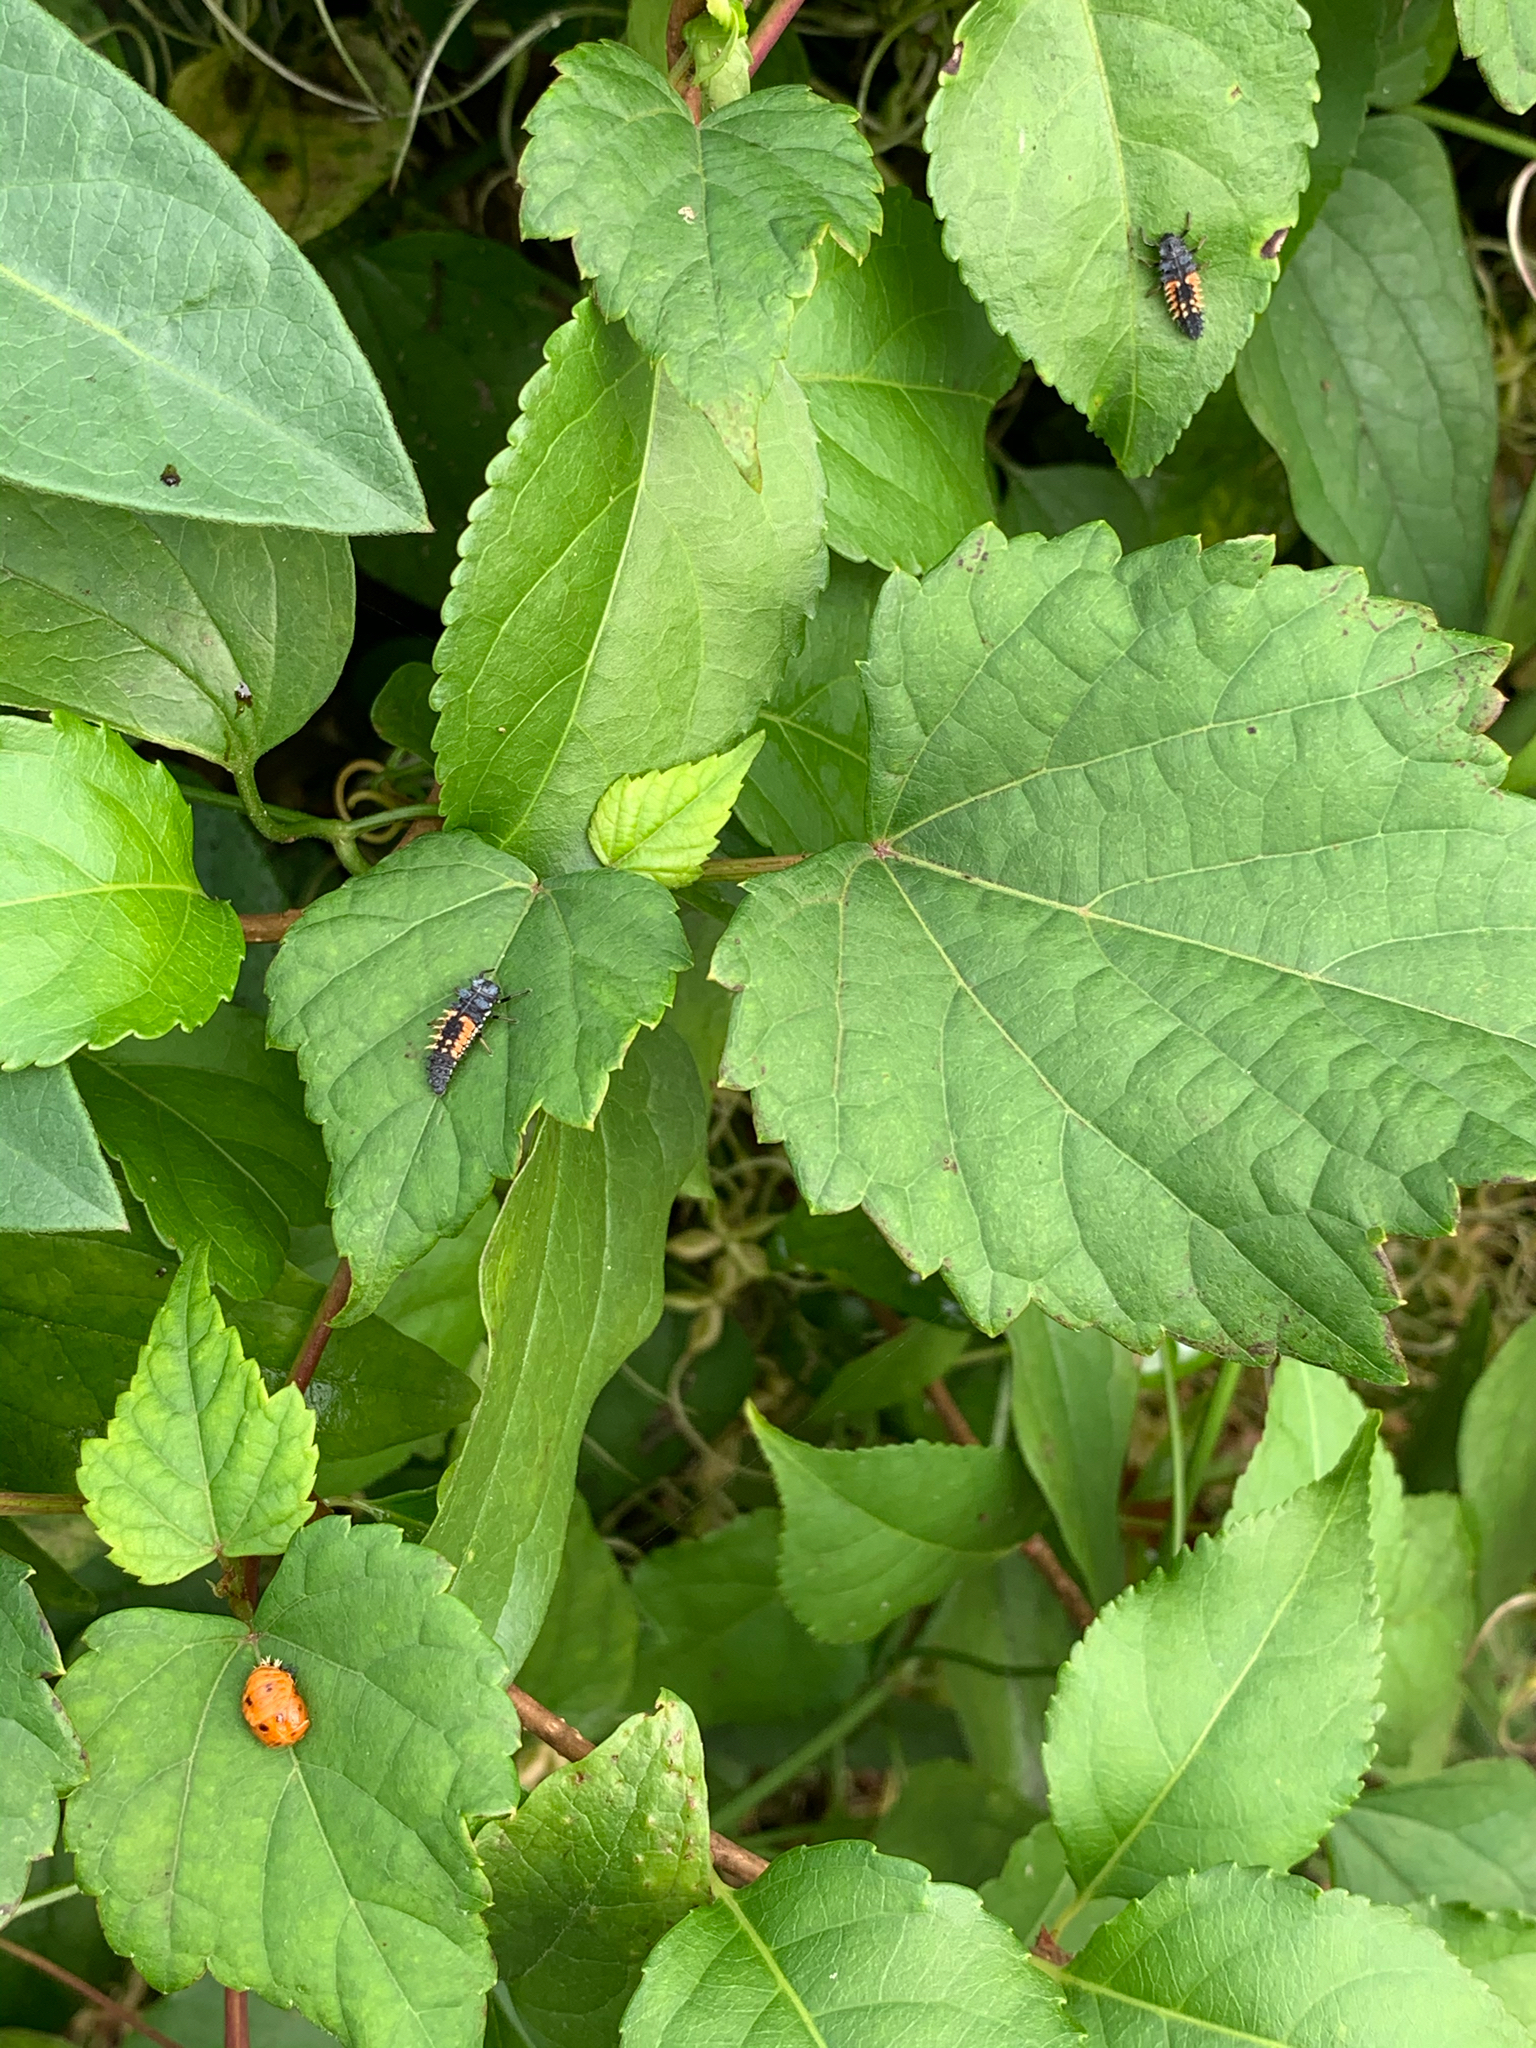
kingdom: Animalia
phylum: Arthropoda
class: Insecta
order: Coleoptera
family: Coccinellidae
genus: Harmonia
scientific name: Harmonia axyridis
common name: Harlequin ladybird
